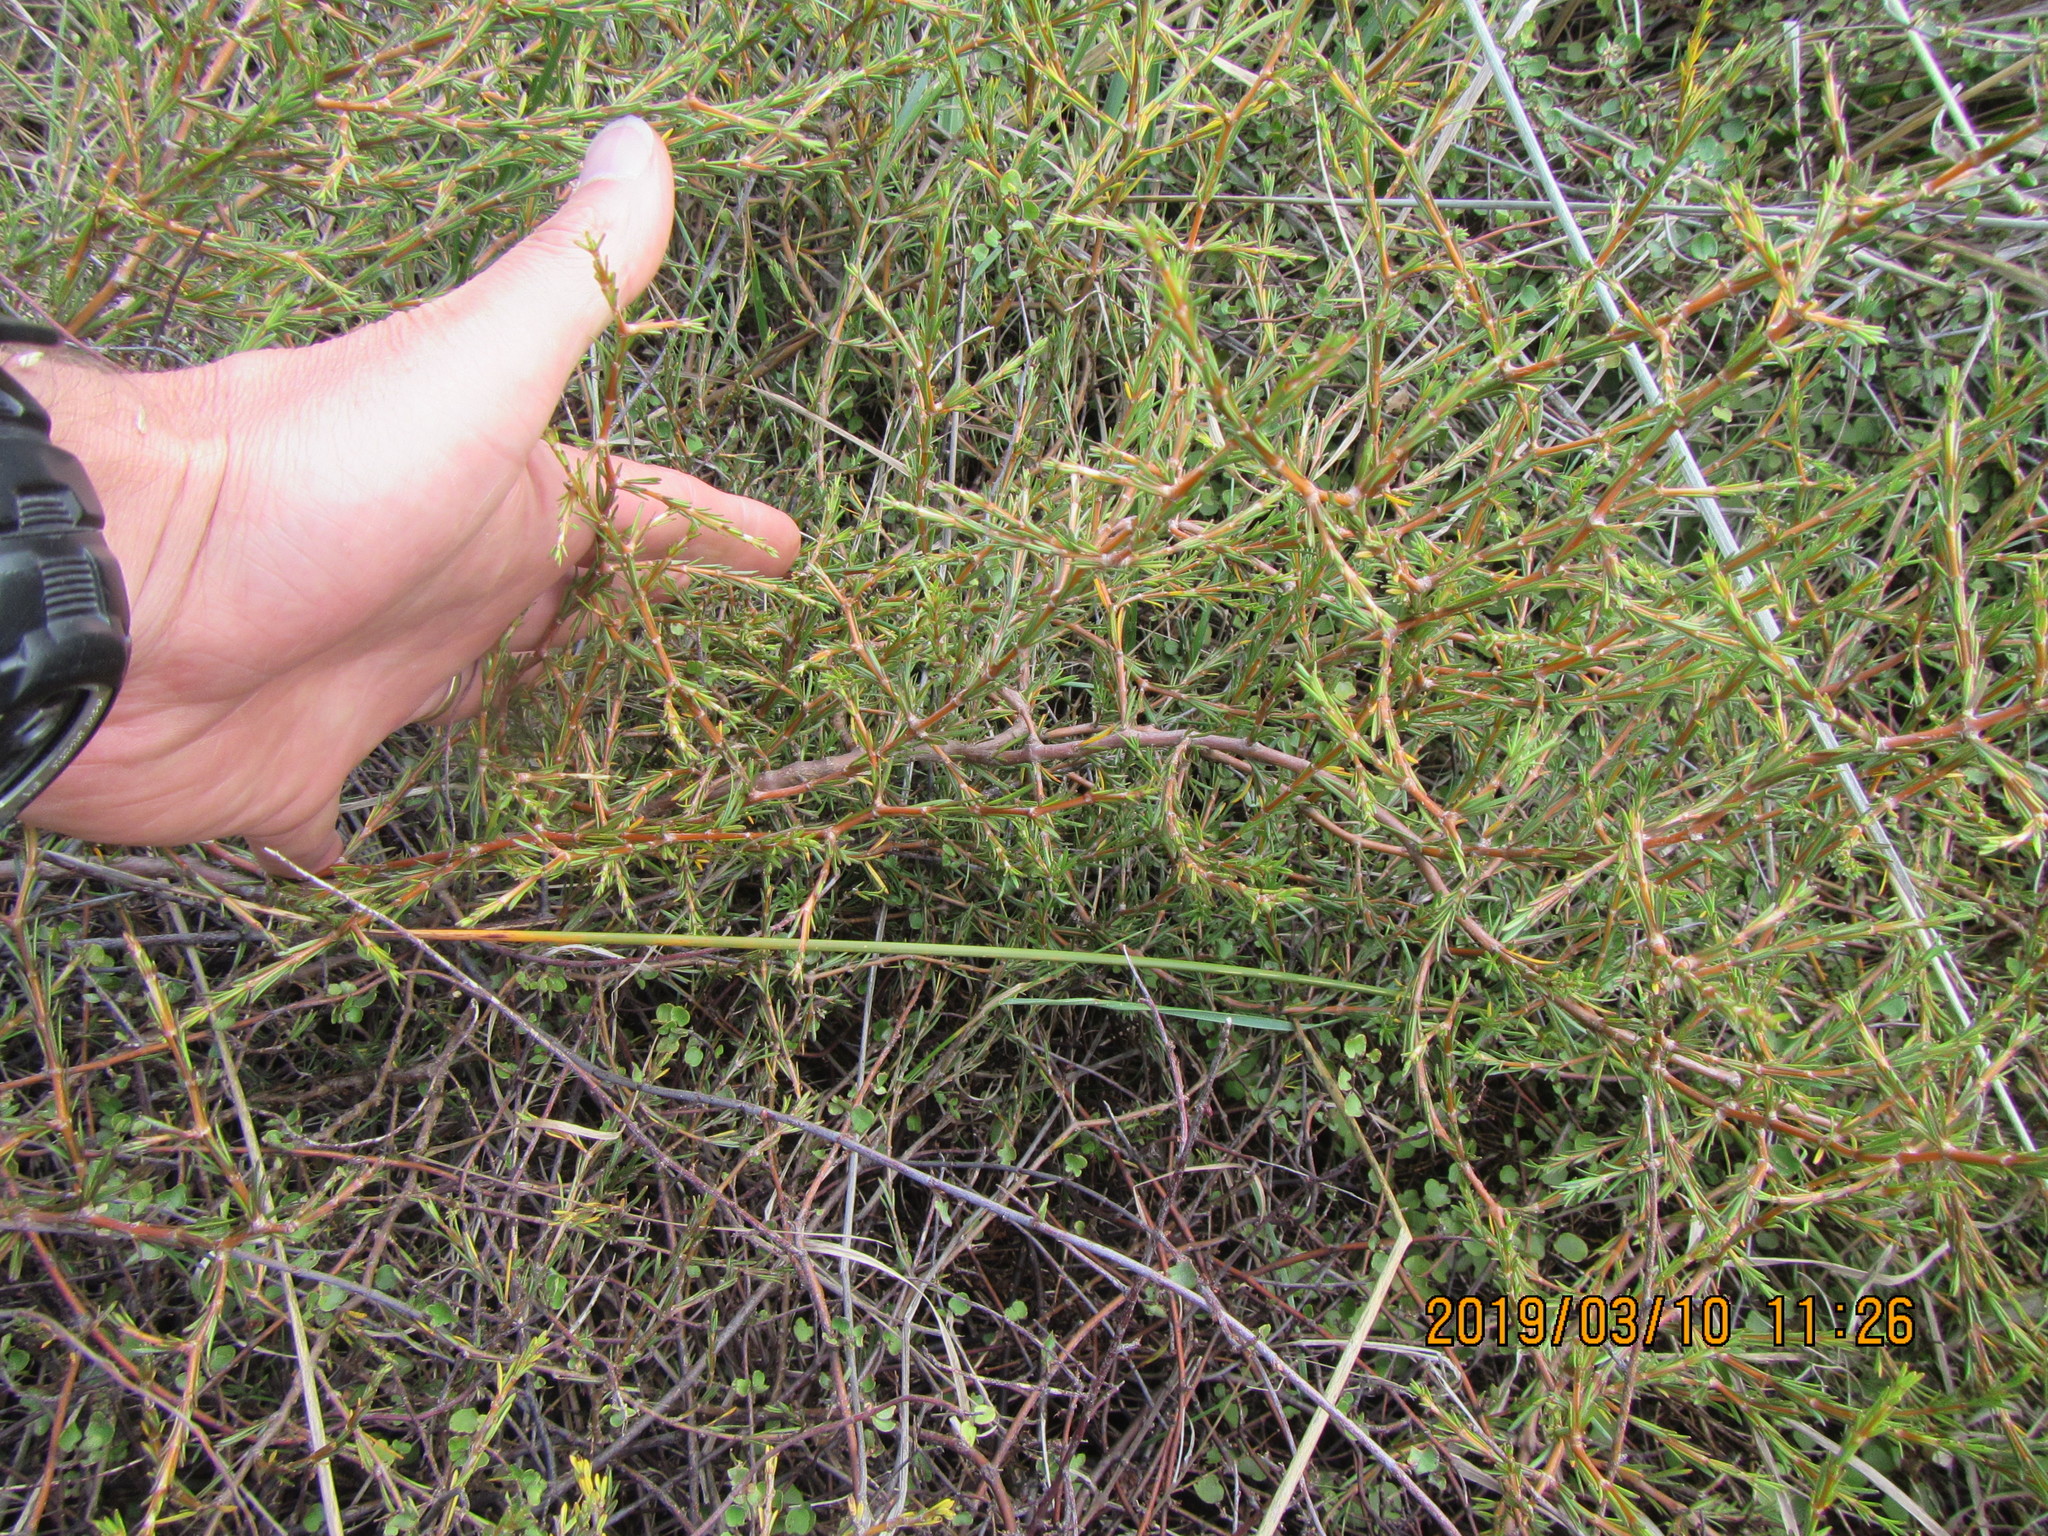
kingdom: Plantae
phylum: Tracheophyta
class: Magnoliopsida
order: Gentianales
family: Rubiaceae
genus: Coprosma
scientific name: Coprosma acerosa
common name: Sand coprosma
